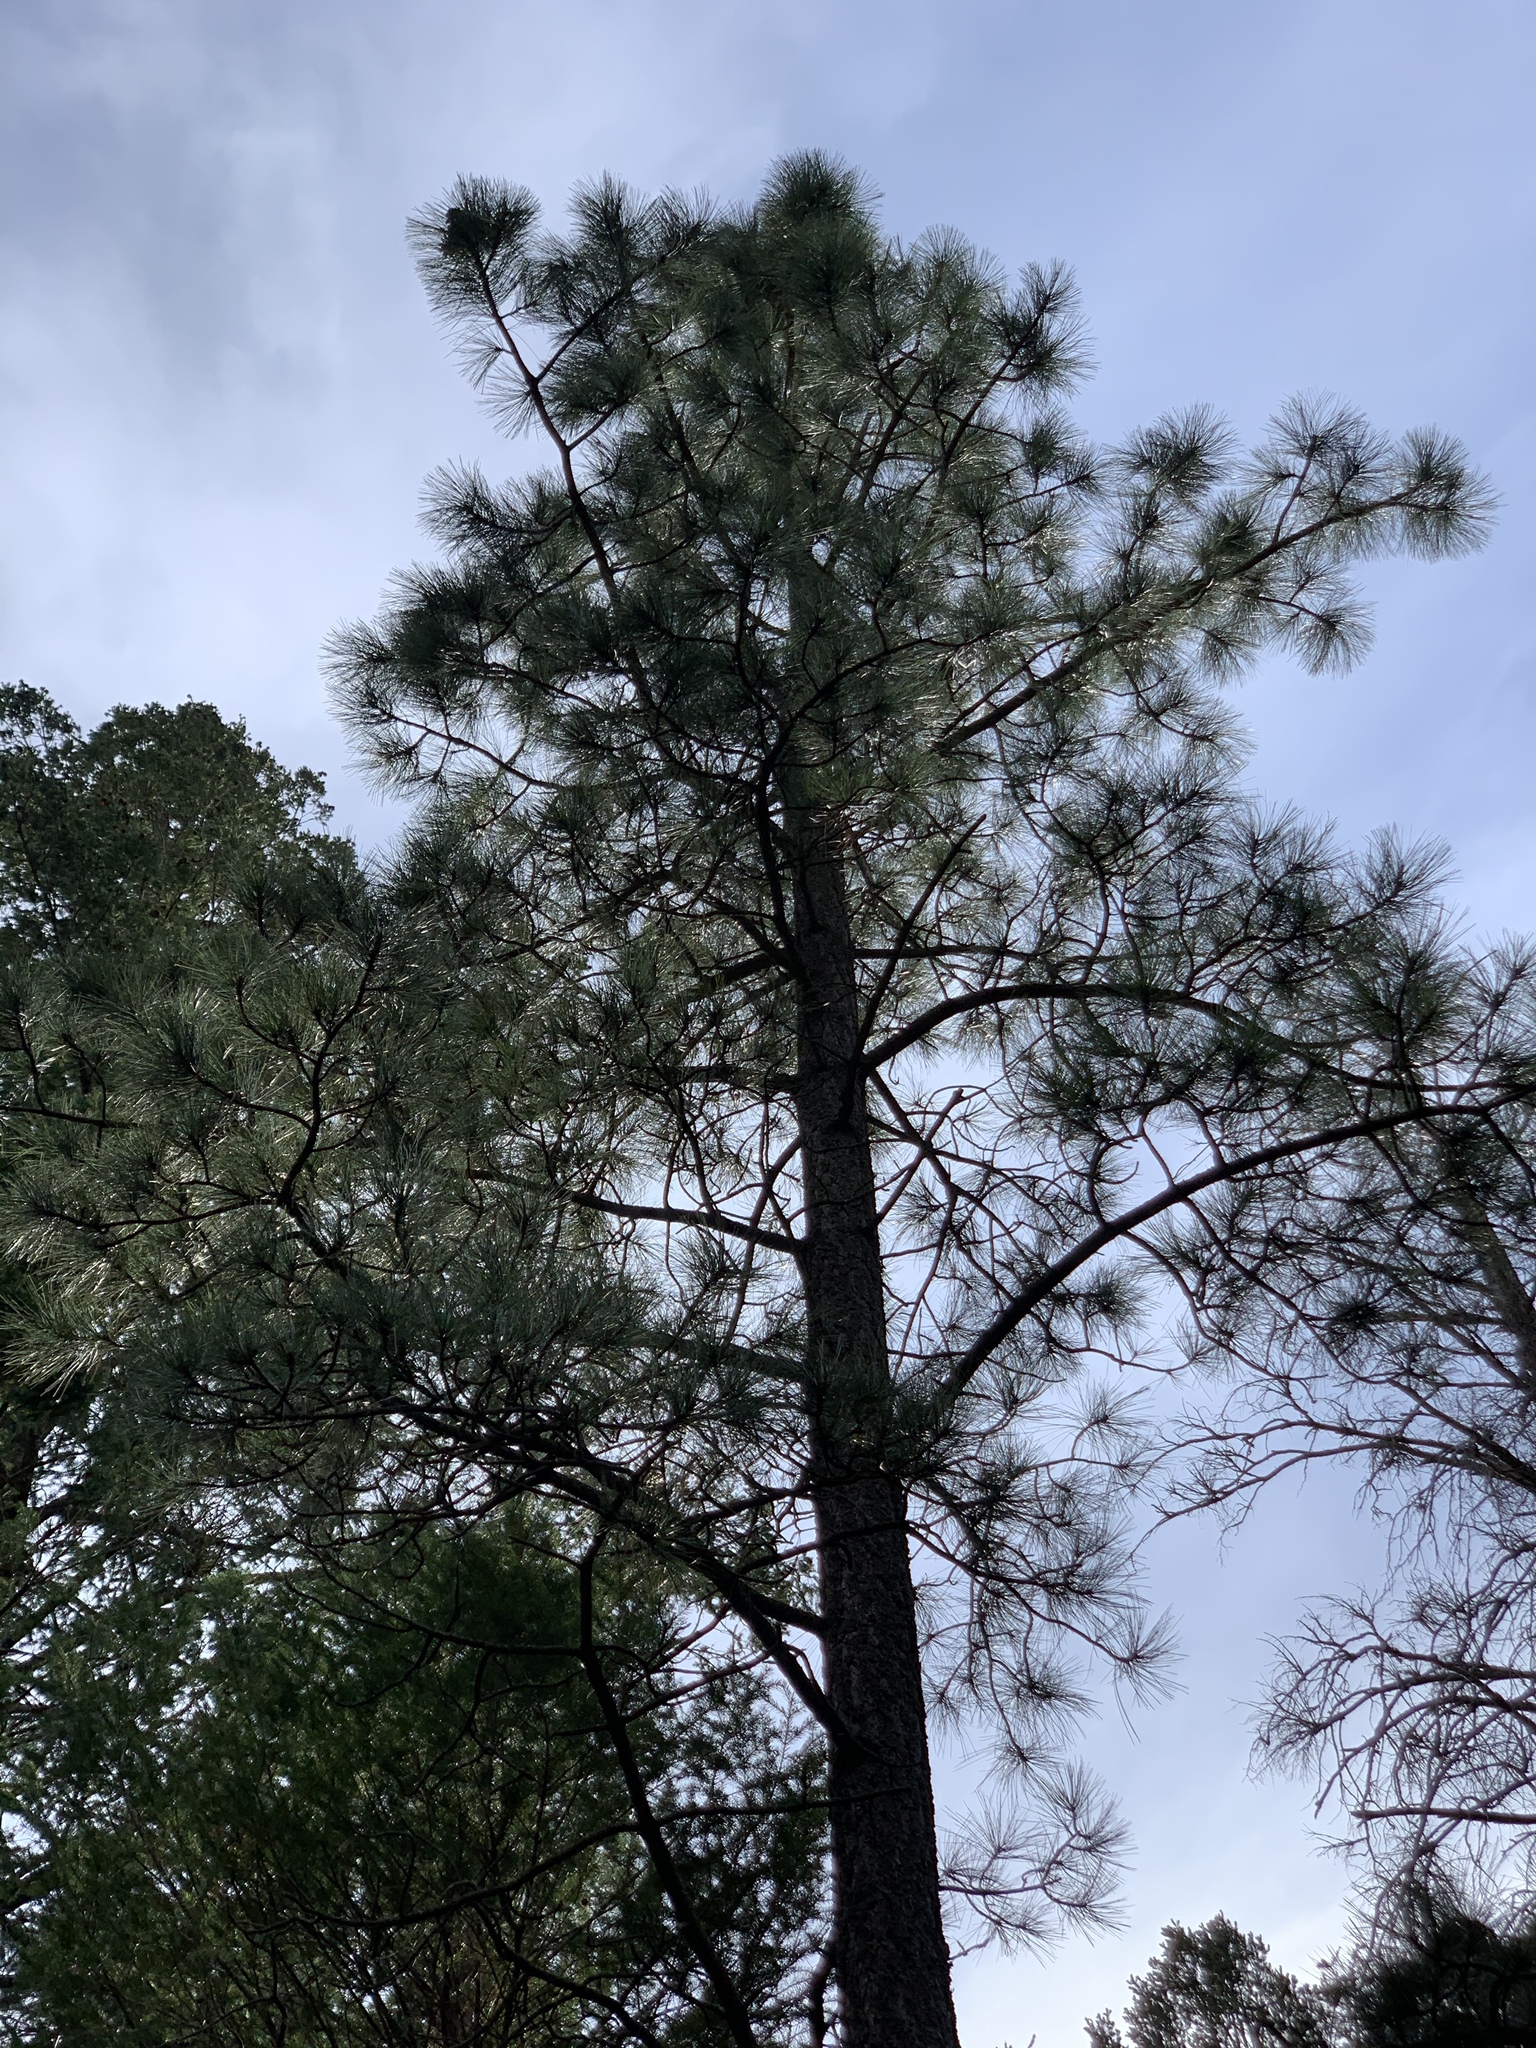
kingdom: Plantae
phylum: Tracheophyta
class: Pinopsida
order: Pinales
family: Pinaceae
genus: Pinus
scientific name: Pinus ponderosa
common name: Western yellow-pine
